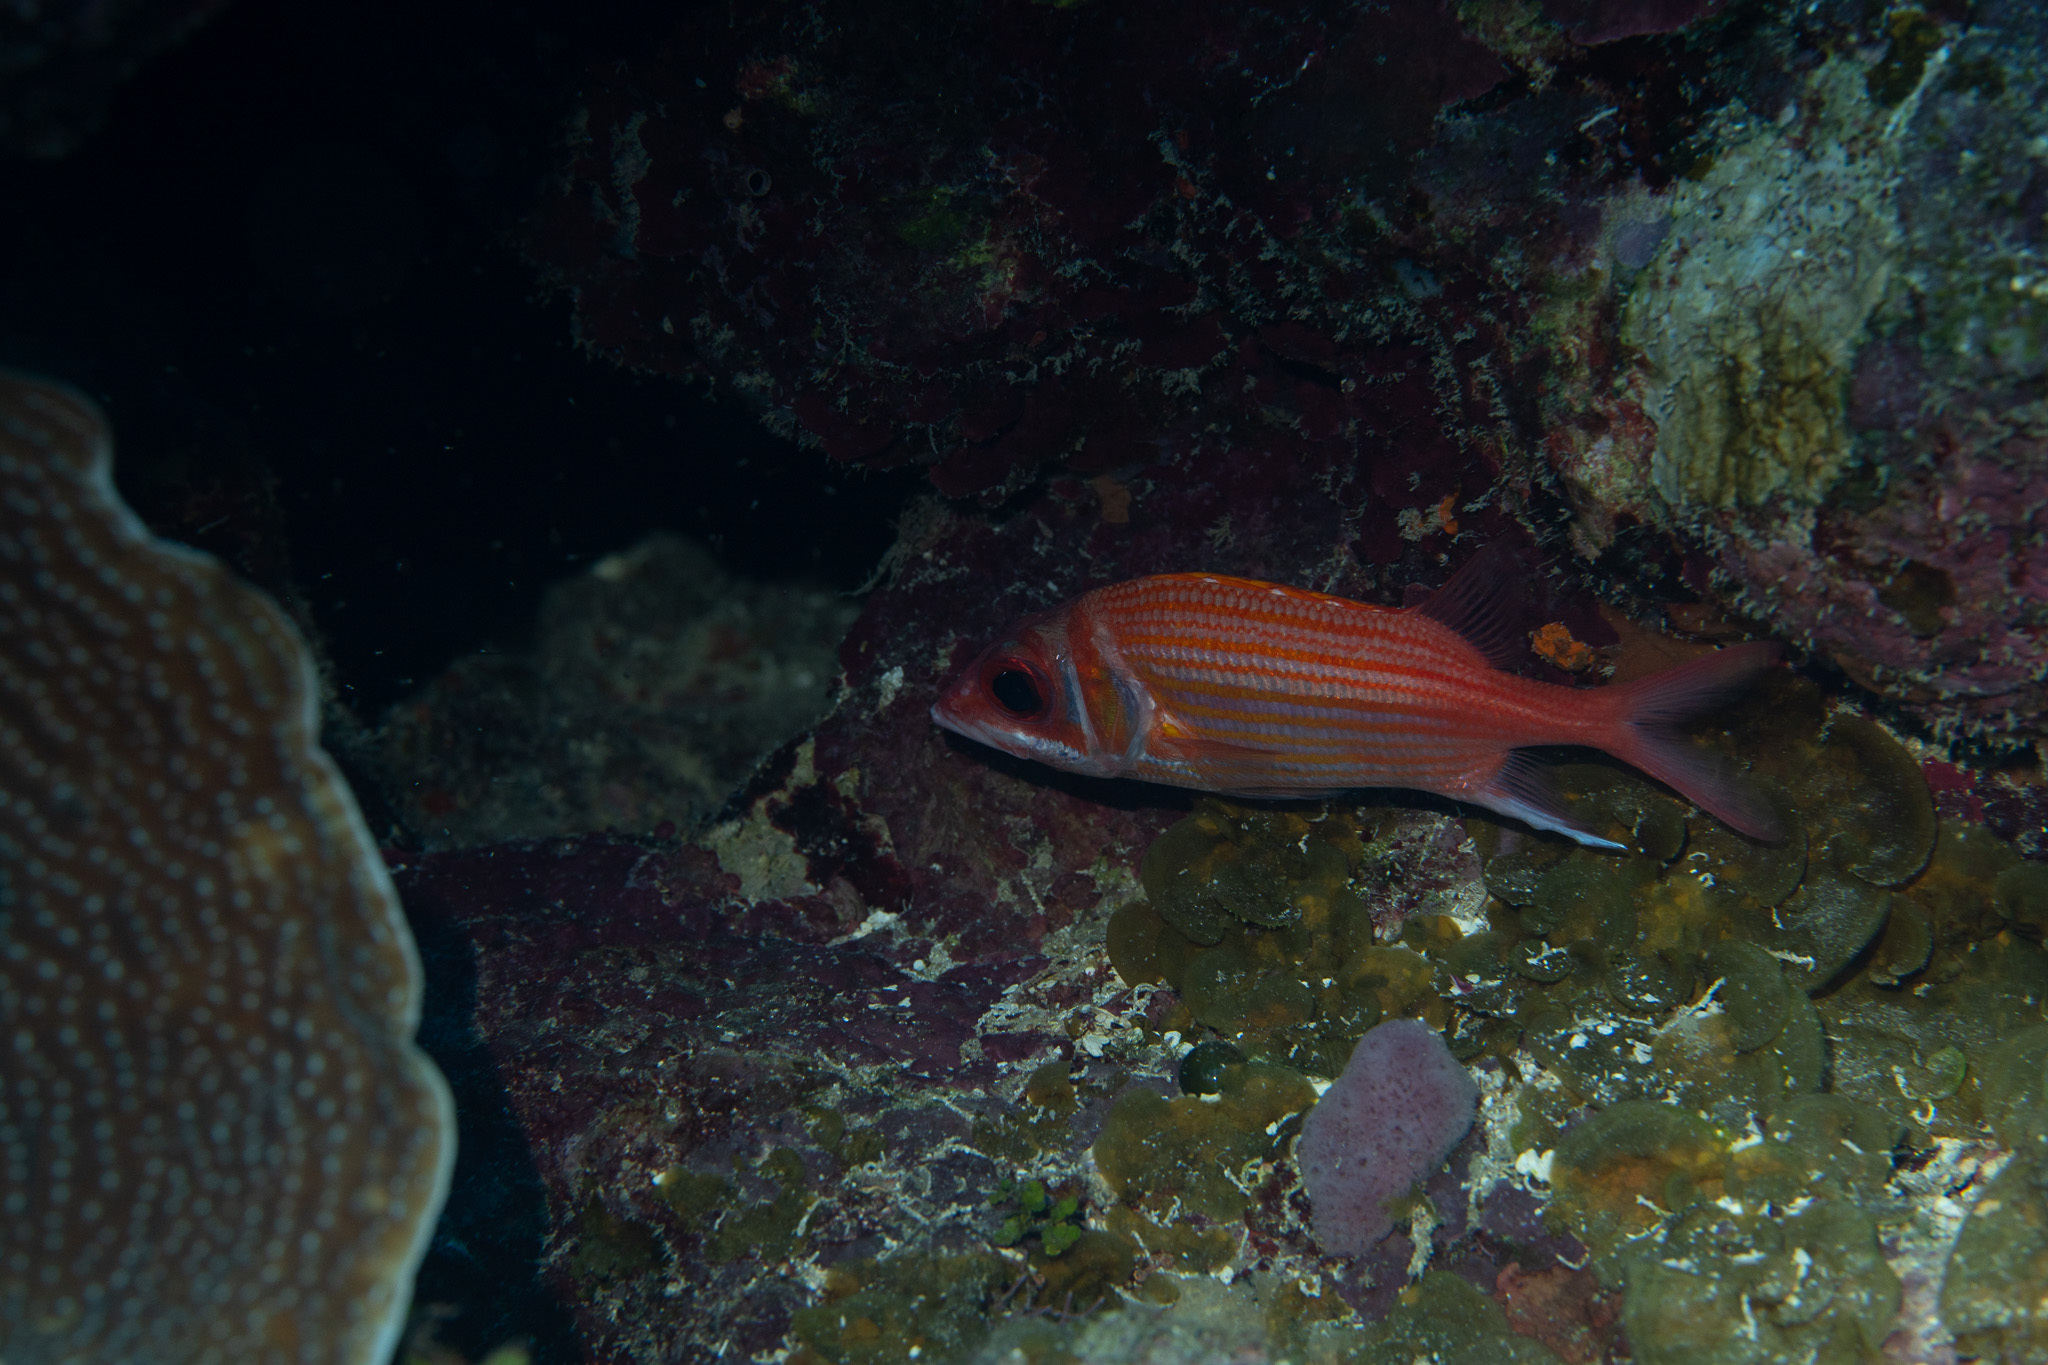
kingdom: Animalia
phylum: Chordata
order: Beryciformes
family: Holocentridae
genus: Neoniphon
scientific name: Neoniphon marianus
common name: Longjaw squirrelfish
